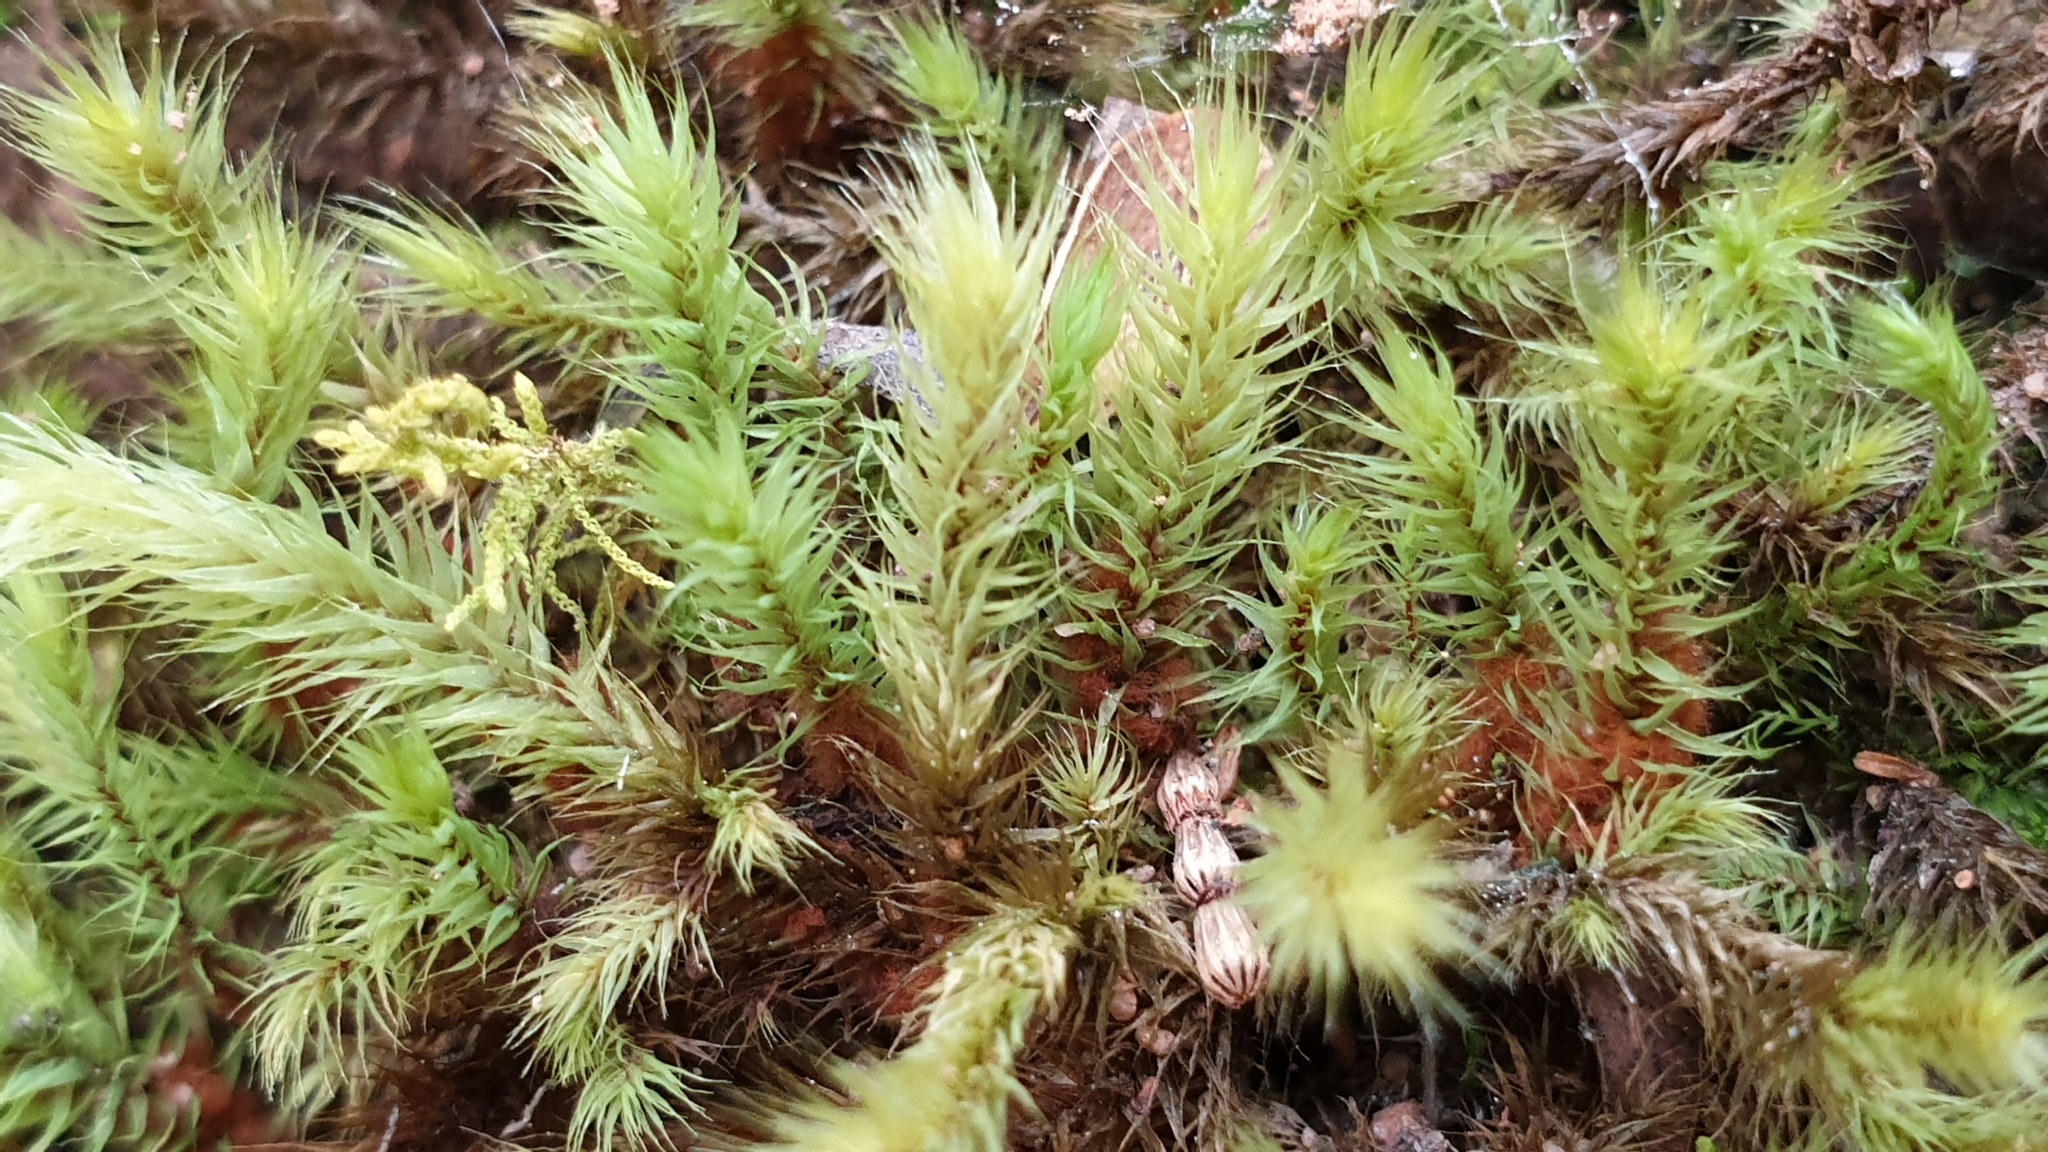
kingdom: Plantae
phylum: Bryophyta
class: Bryopsida
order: Bartramiales
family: Bartramiaceae
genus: Breutelia
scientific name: Breutelia affinis
